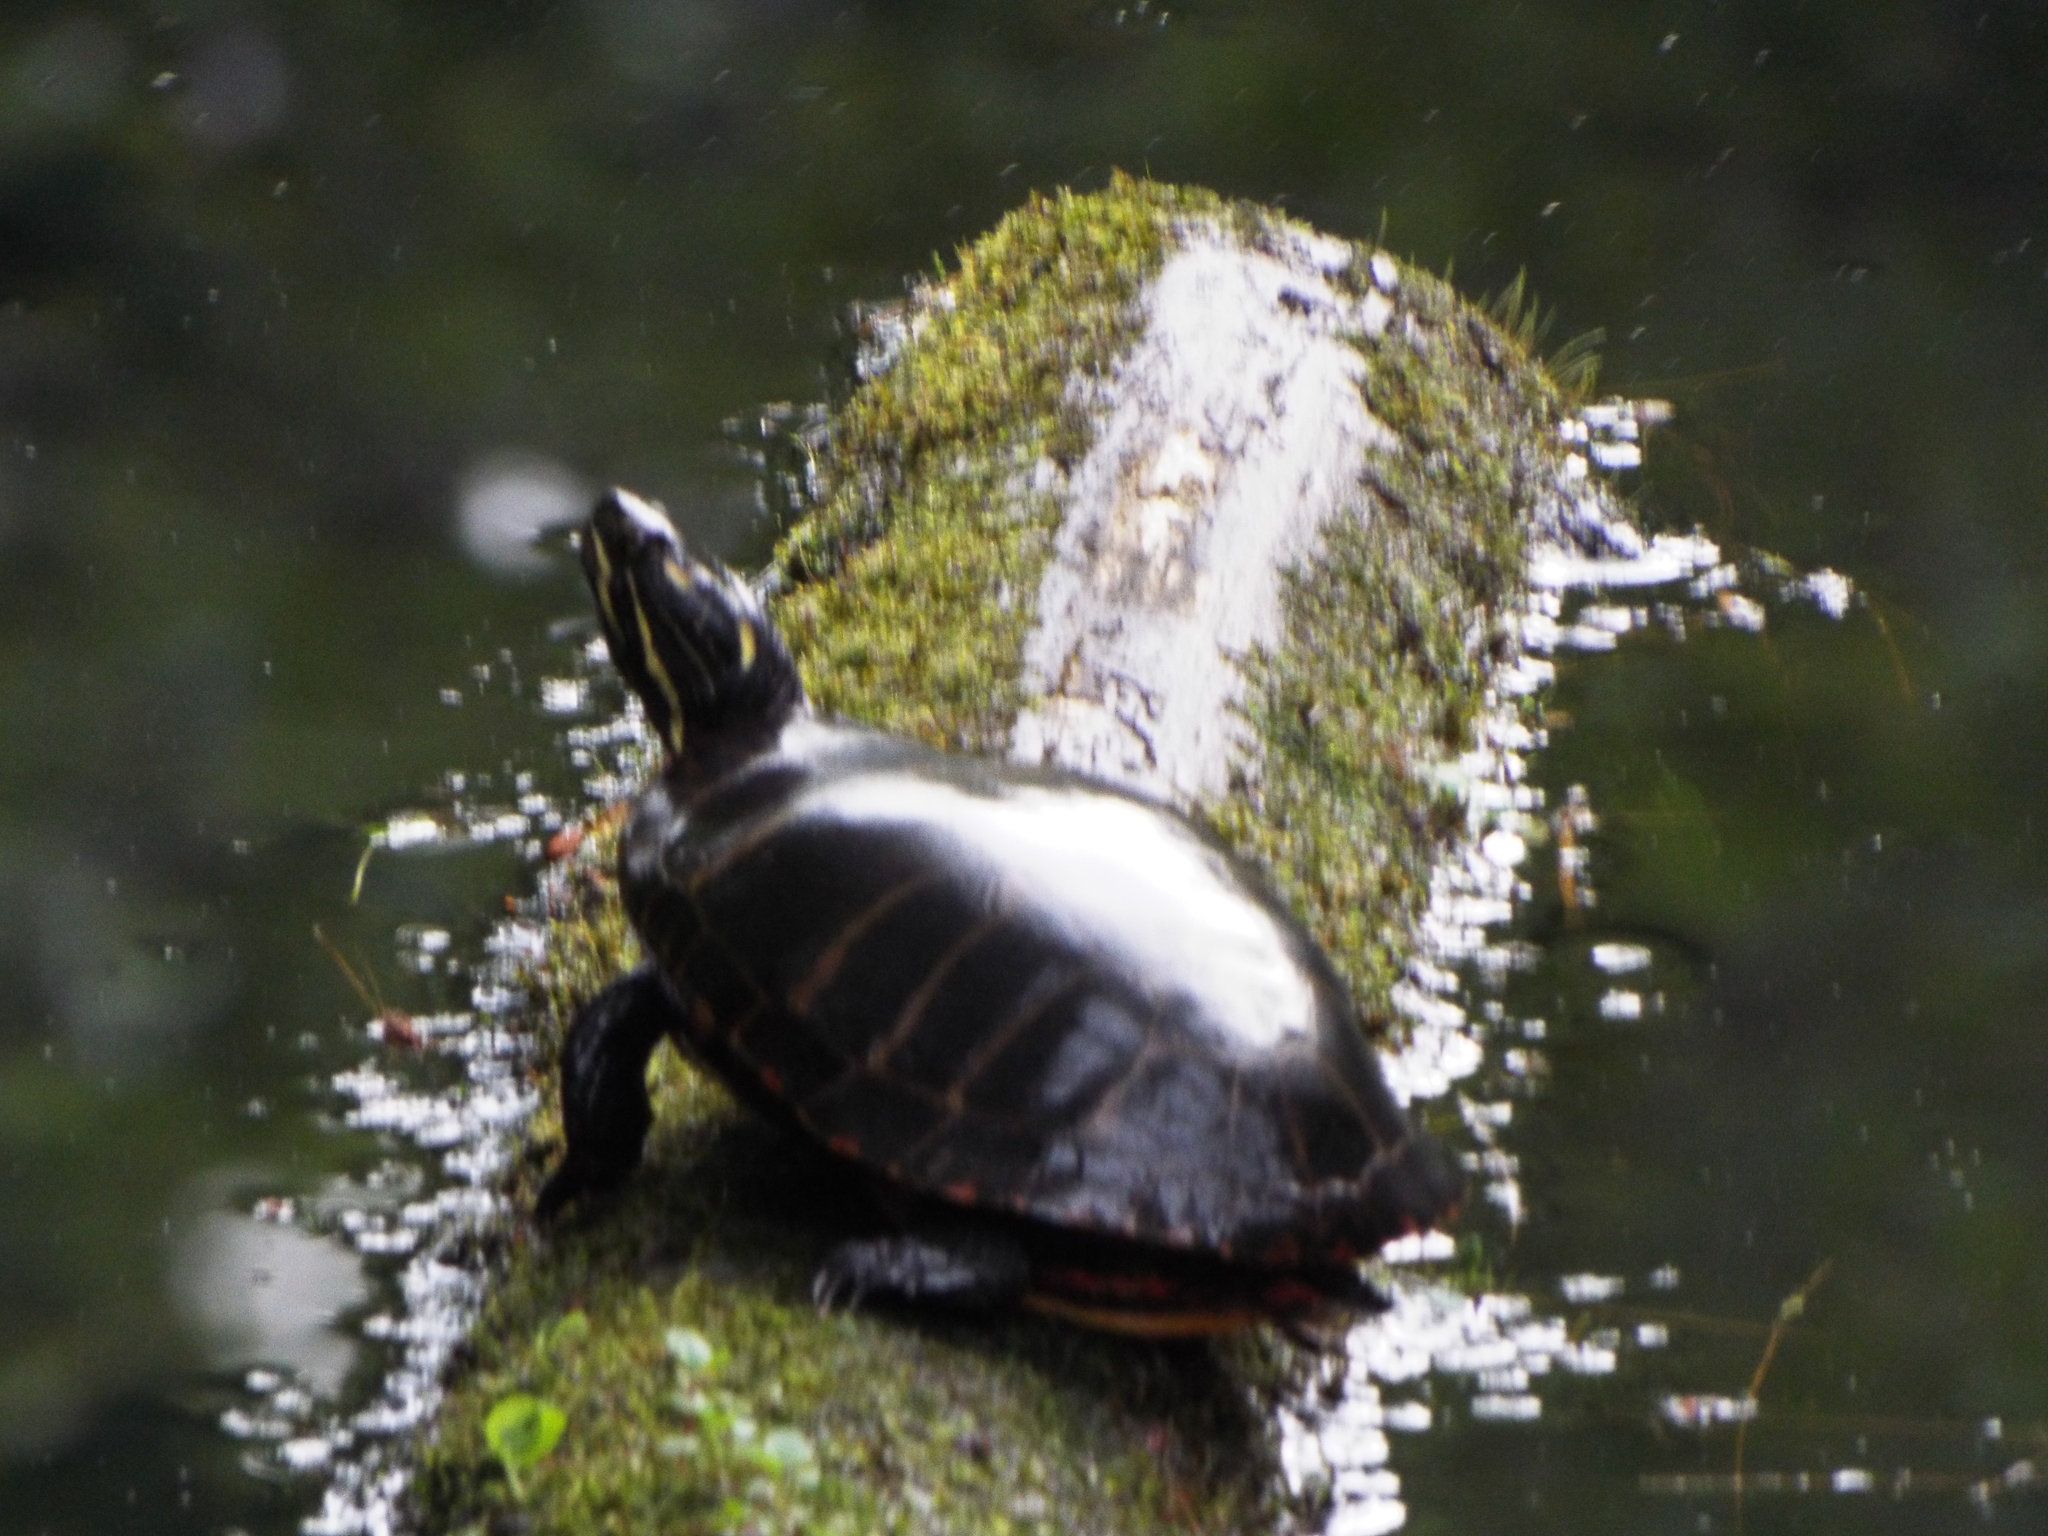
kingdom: Animalia
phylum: Chordata
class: Testudines
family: Emydidae
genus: Chrysemys
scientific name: Chrysemys picta
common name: Painted turtle
